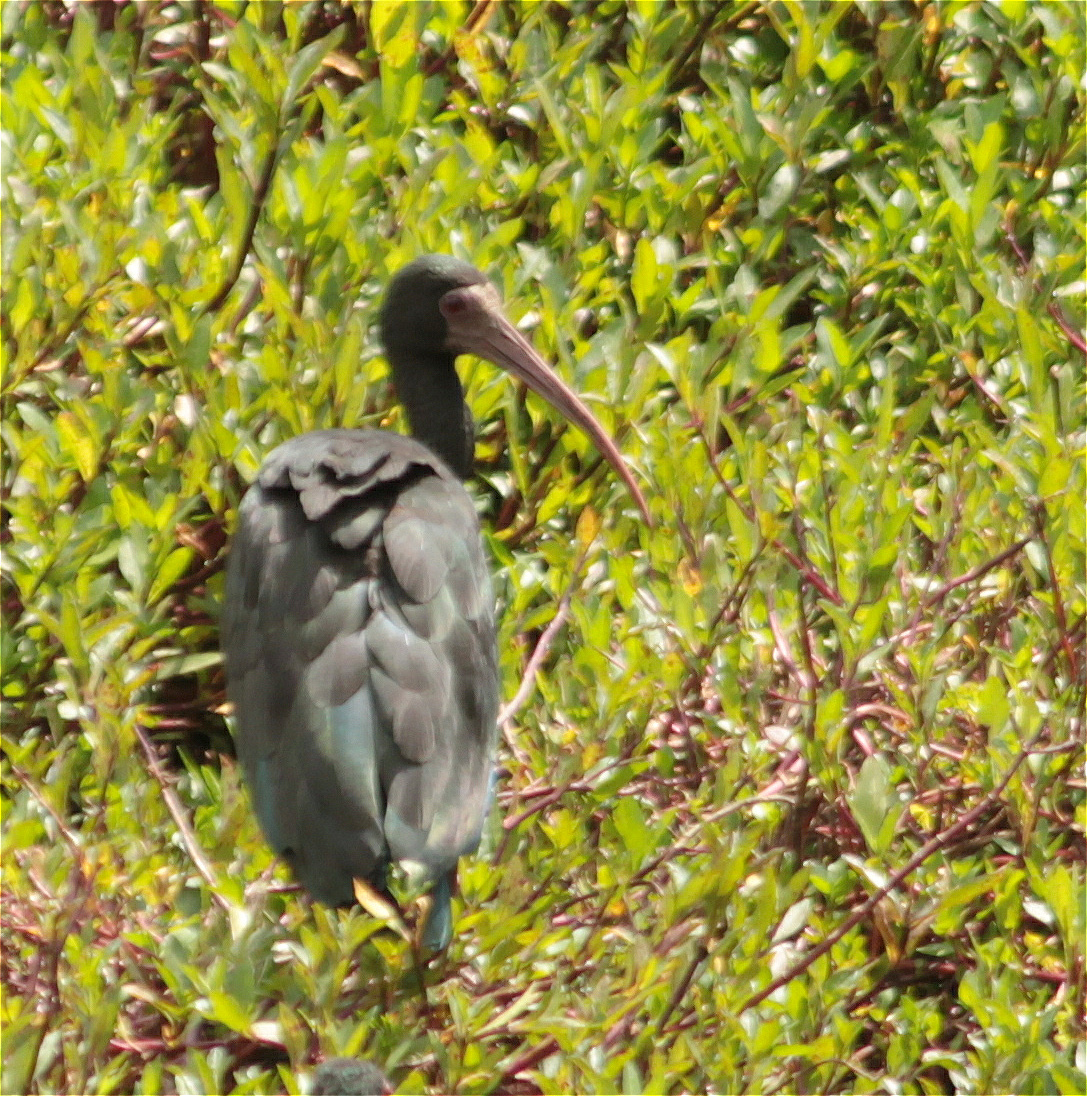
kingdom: Animalia
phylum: Chordata
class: Aves
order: Pelecaniformes
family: Threskiornithidae
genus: Phimosus
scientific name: Phimosus infuscatus
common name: Bare-faced ibis
